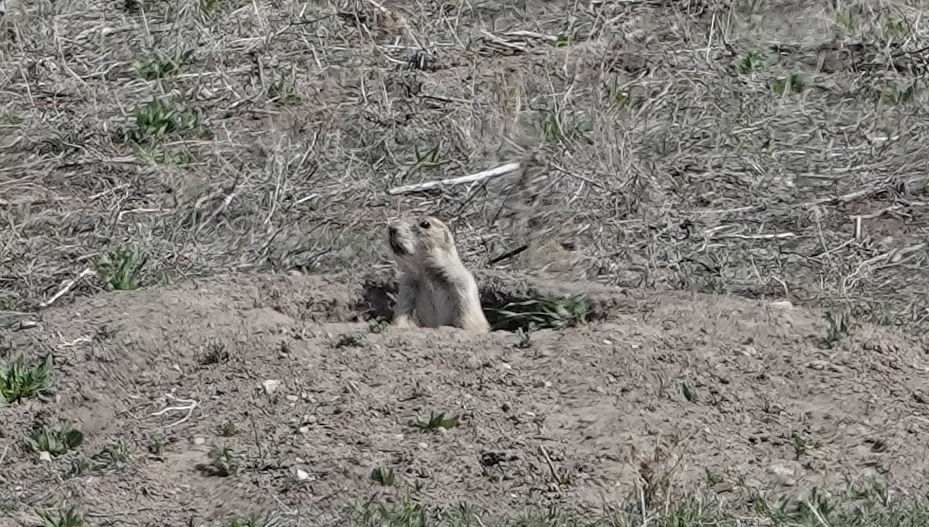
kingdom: Animalia
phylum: Chordata
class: Mammalia
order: Rodentia
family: Sciuridae
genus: Cynomys
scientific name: Cynomys ludovicianus
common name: Black-tailed prairie dog
